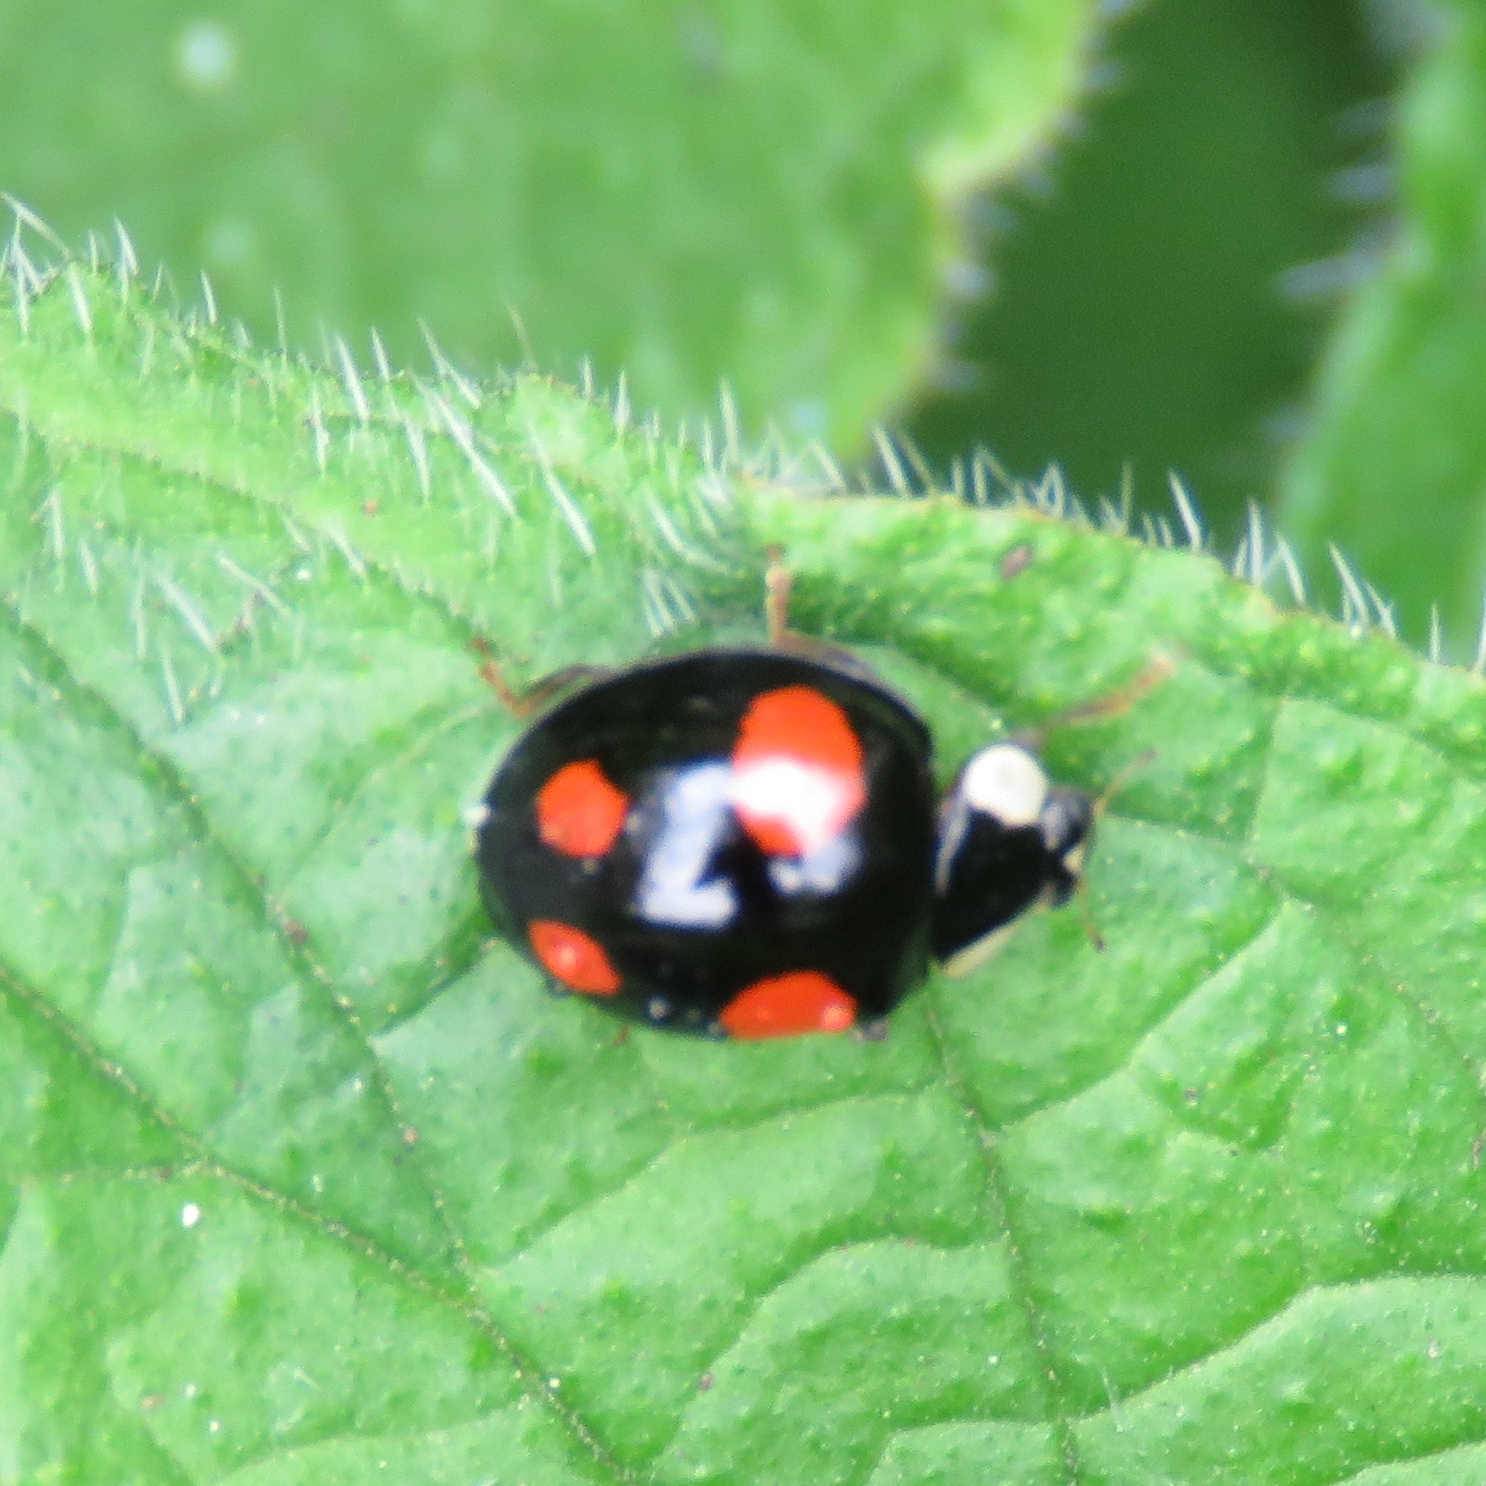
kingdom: Animalia
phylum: Arthropoda
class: Insecta
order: Coleoptera
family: Coccinellidae
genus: Harmonia
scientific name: Harmonia axyridis
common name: Harlequin ladybird
